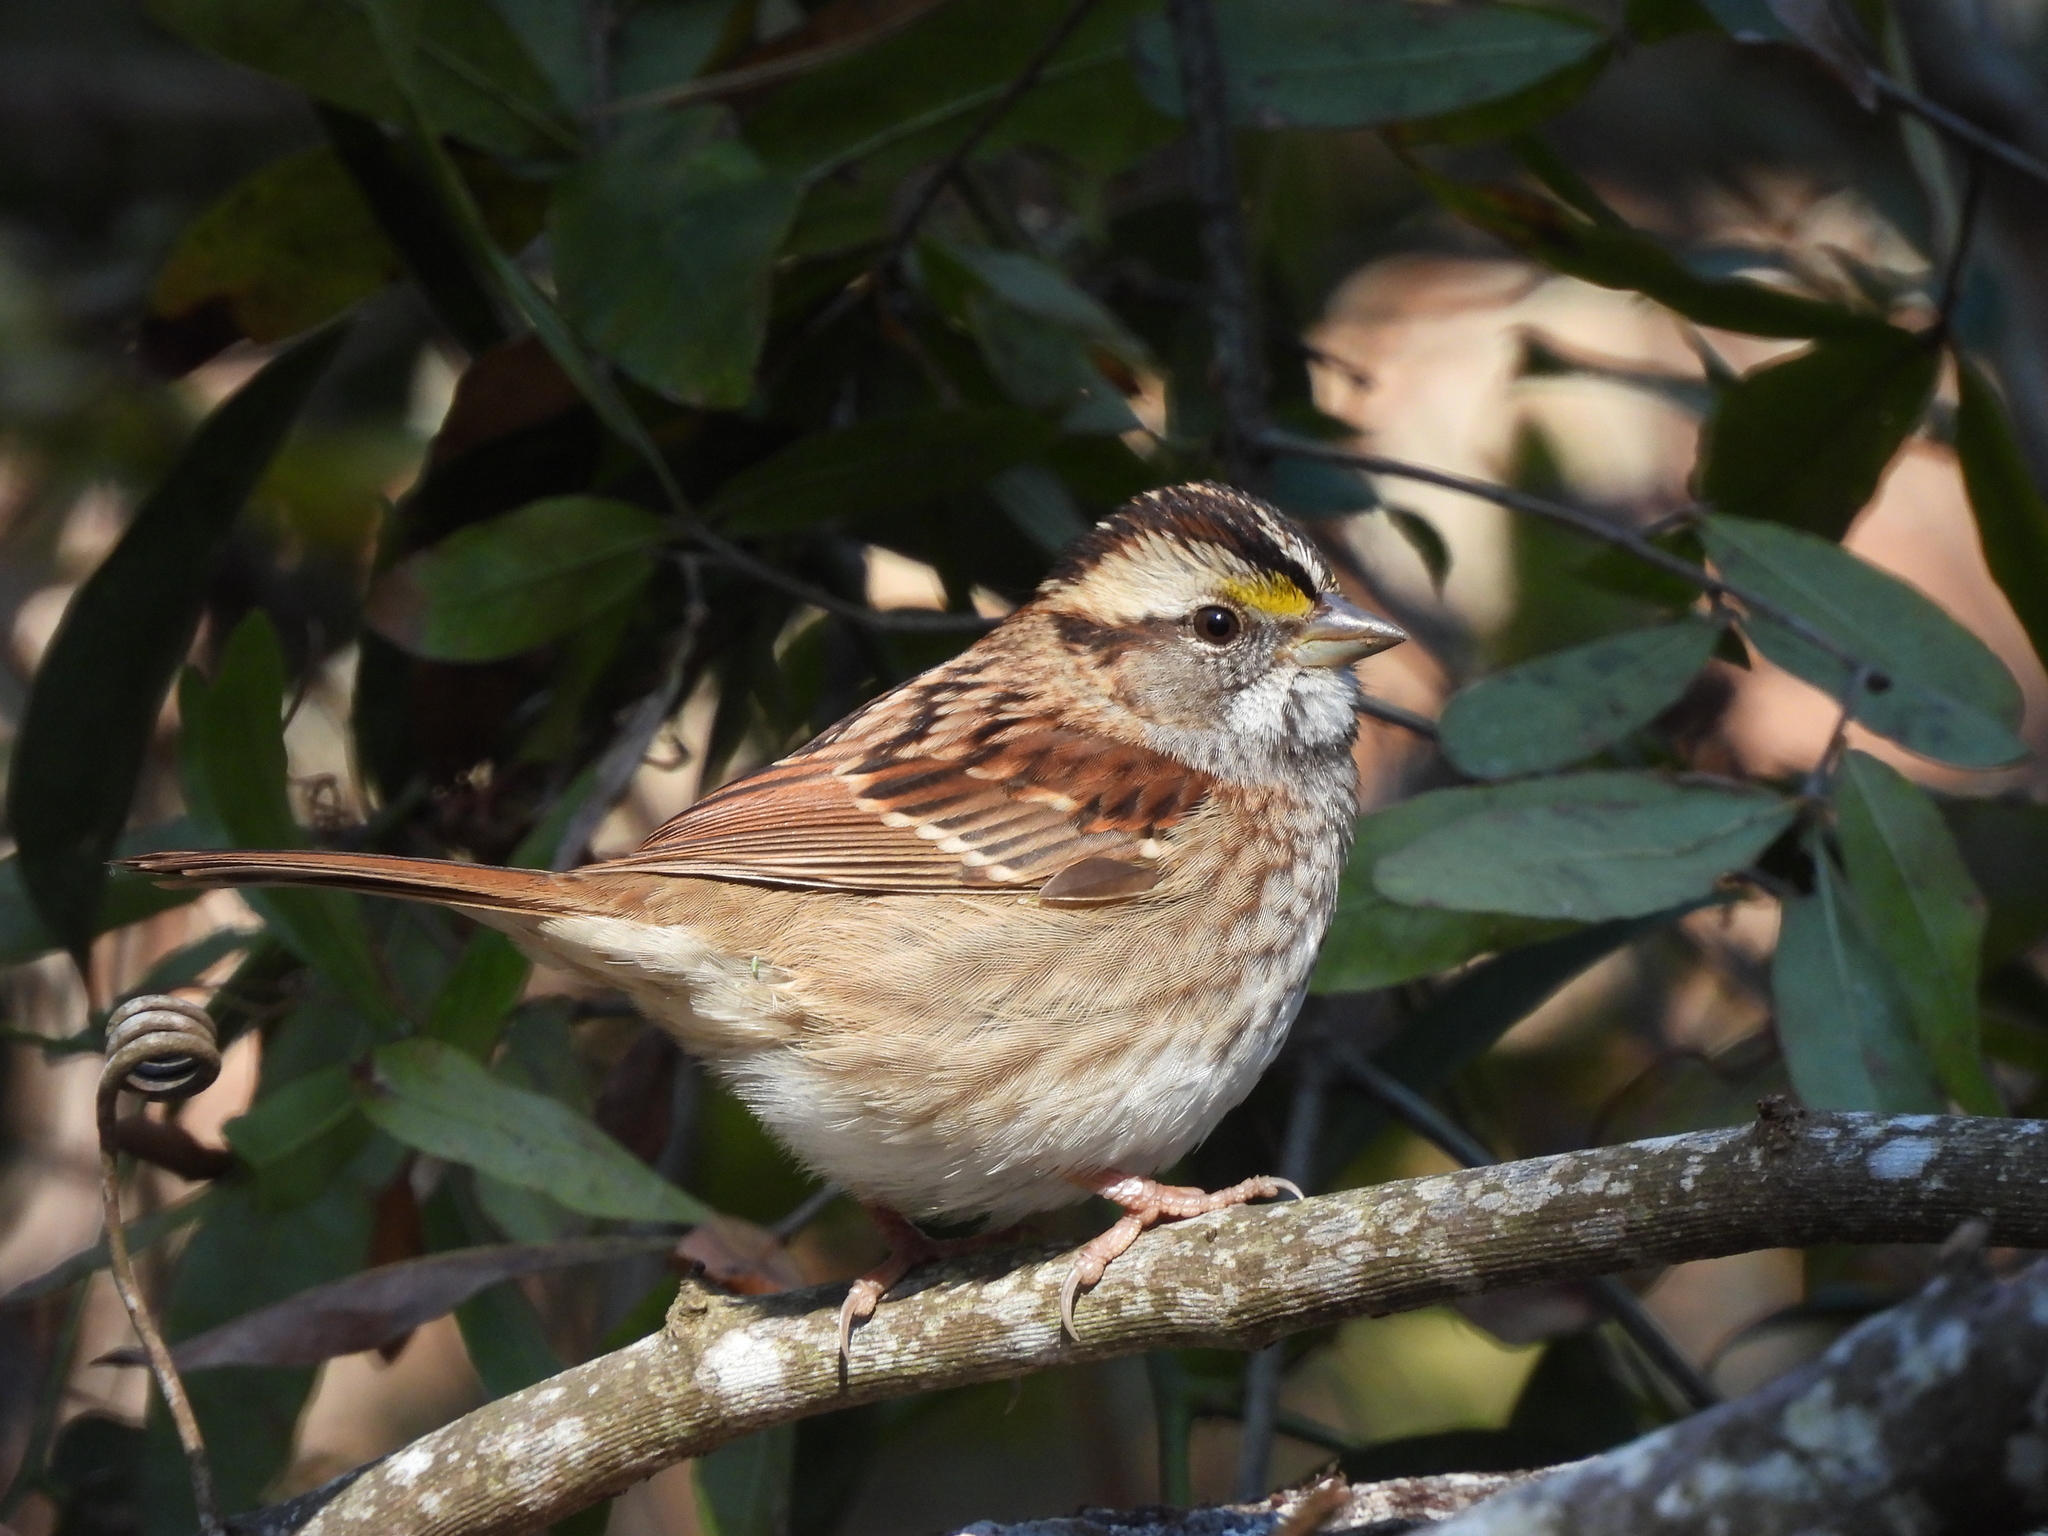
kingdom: Animalia
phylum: Chordata
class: Aves
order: Passeriformes
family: Passerellidae
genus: Zonotrichia
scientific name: Zonotrichia albicollis
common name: White-throated sparrow
